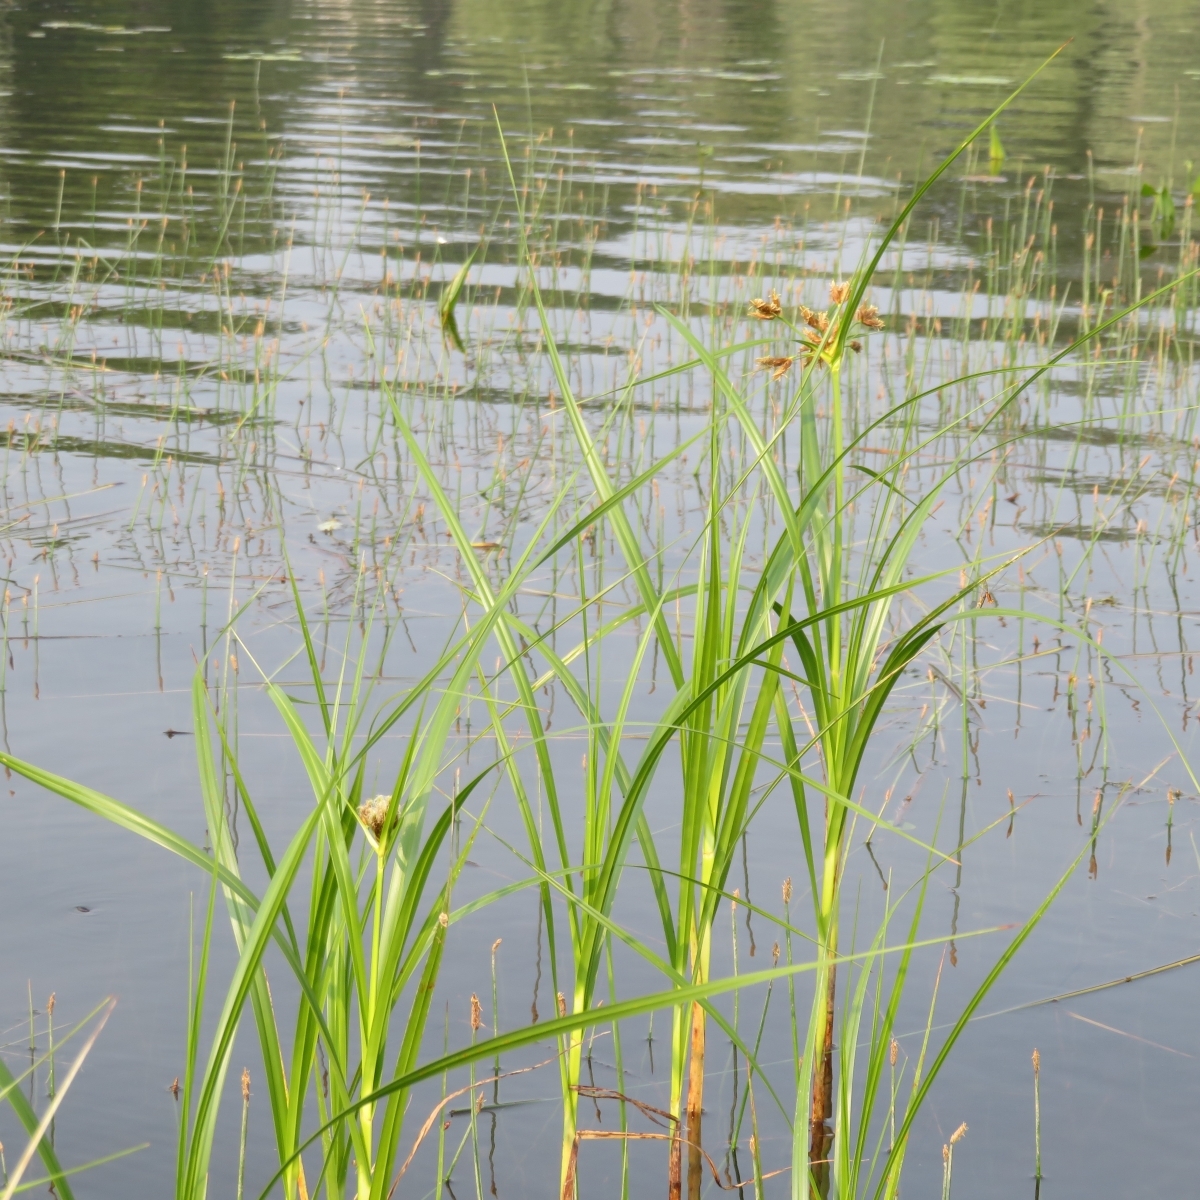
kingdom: Plantae
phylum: Tracheophyta
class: Liliopsida
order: Poales
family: Cyperaceae
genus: Bolboschoenus
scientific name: Bolboschoenus fluviatilis
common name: River bulrush
